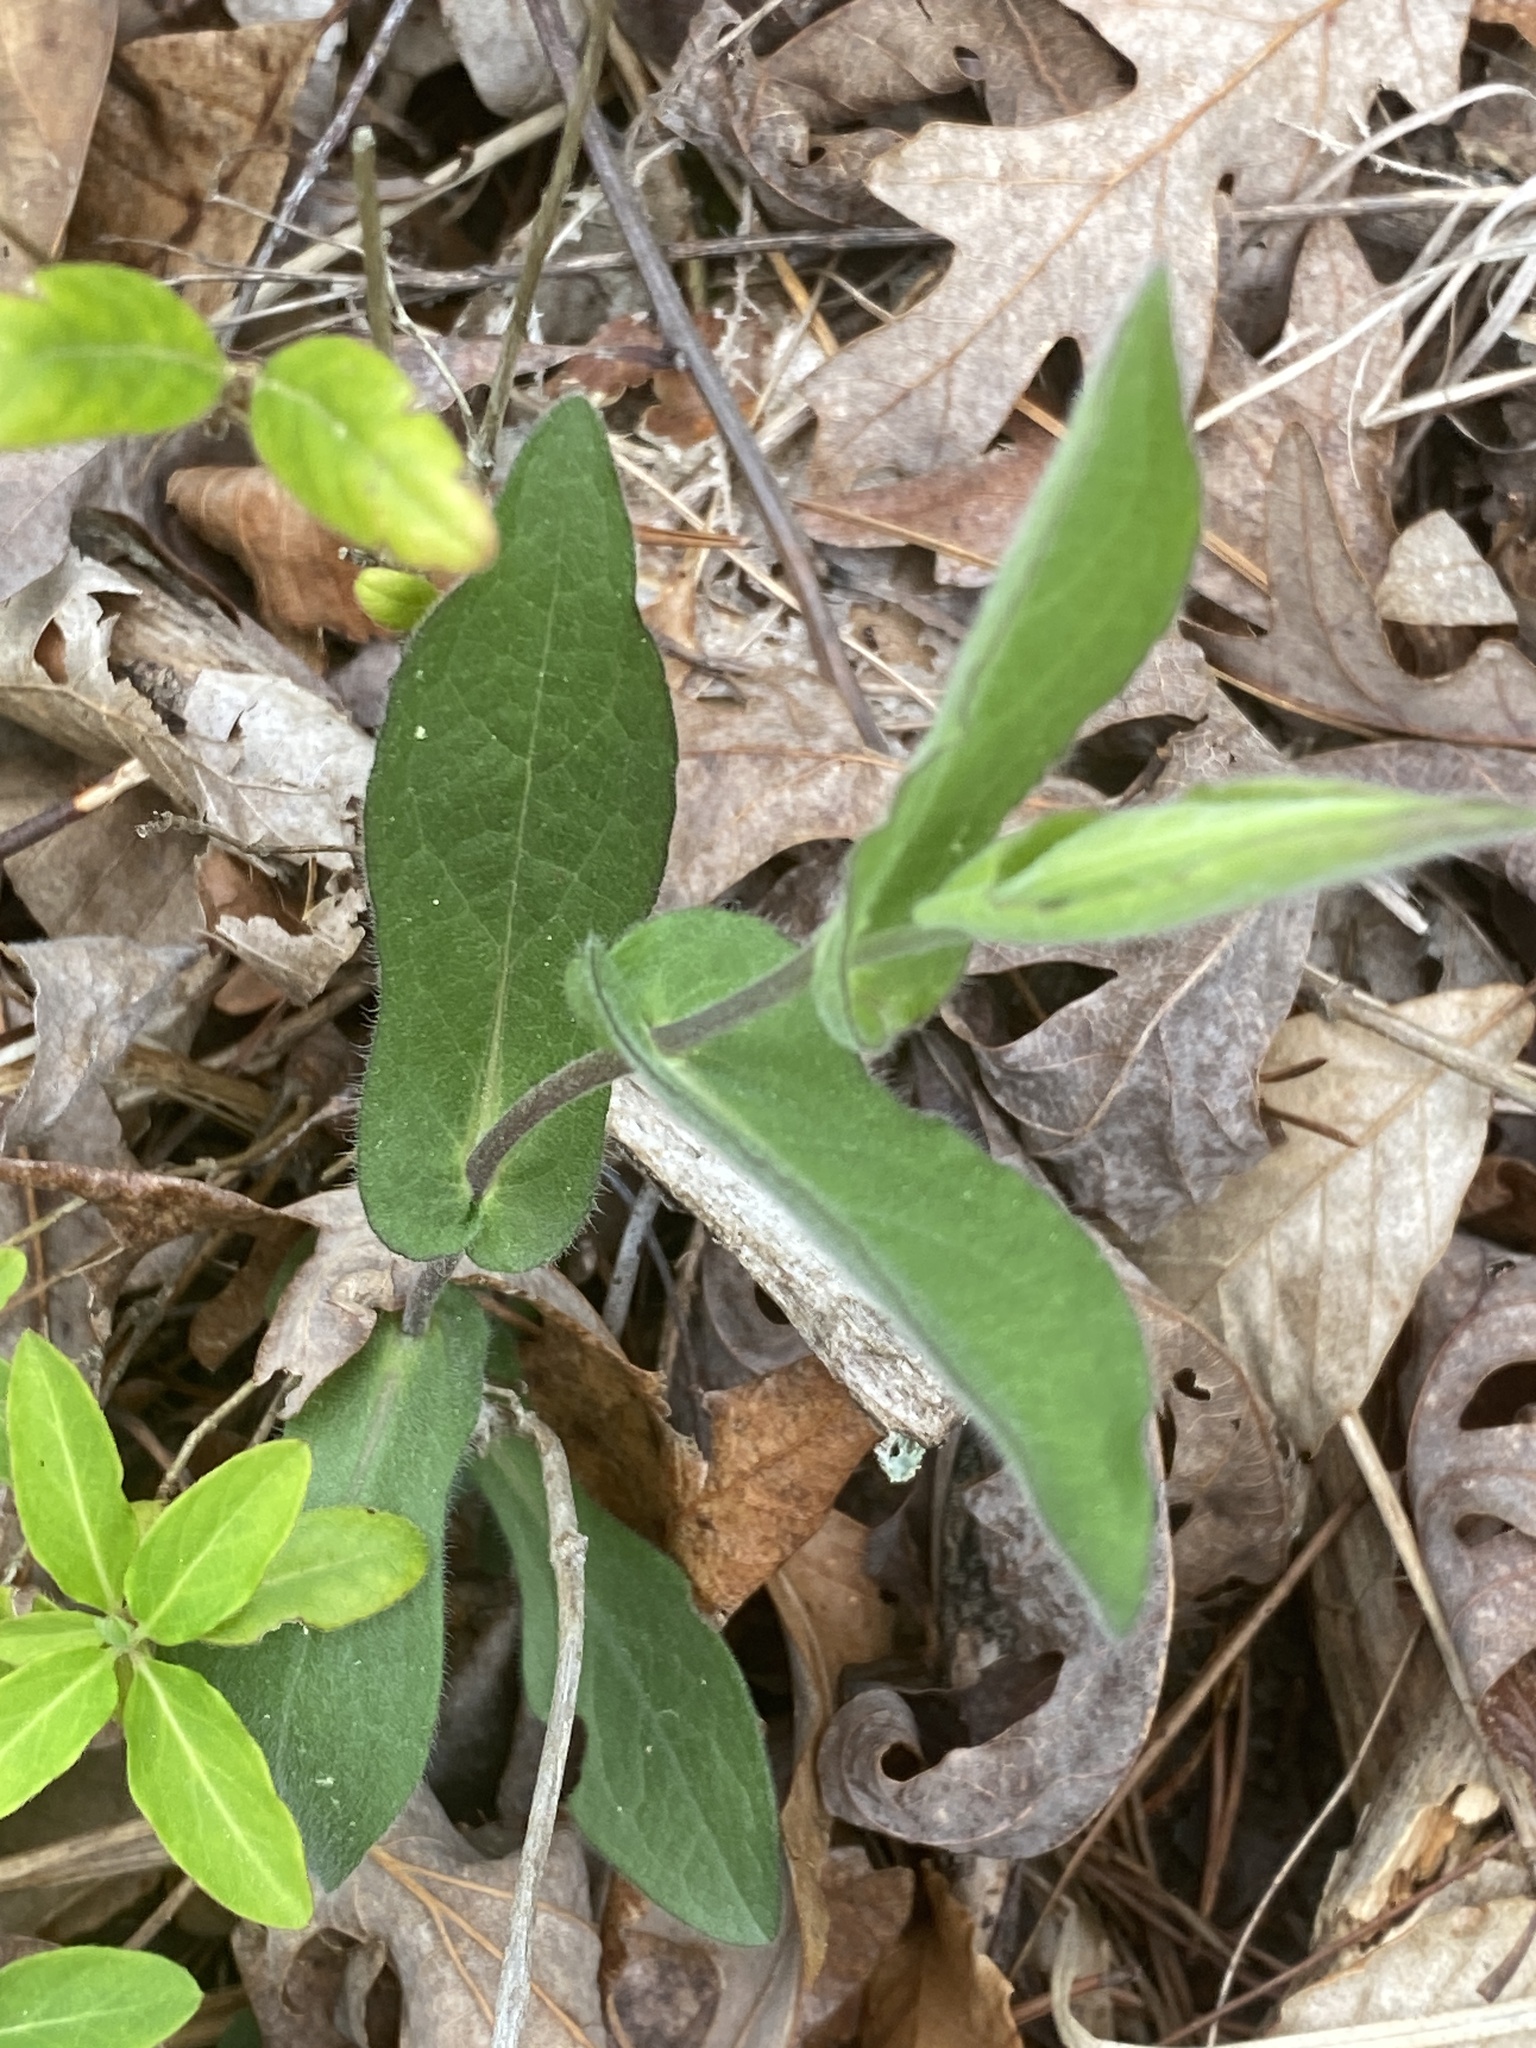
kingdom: Plantae
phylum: Tracheophyta
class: Magnoliopsida
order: Asterales
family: Asteraceae
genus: Symphyotrichum
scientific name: Symphyotrichum patens
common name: Late purple aster
